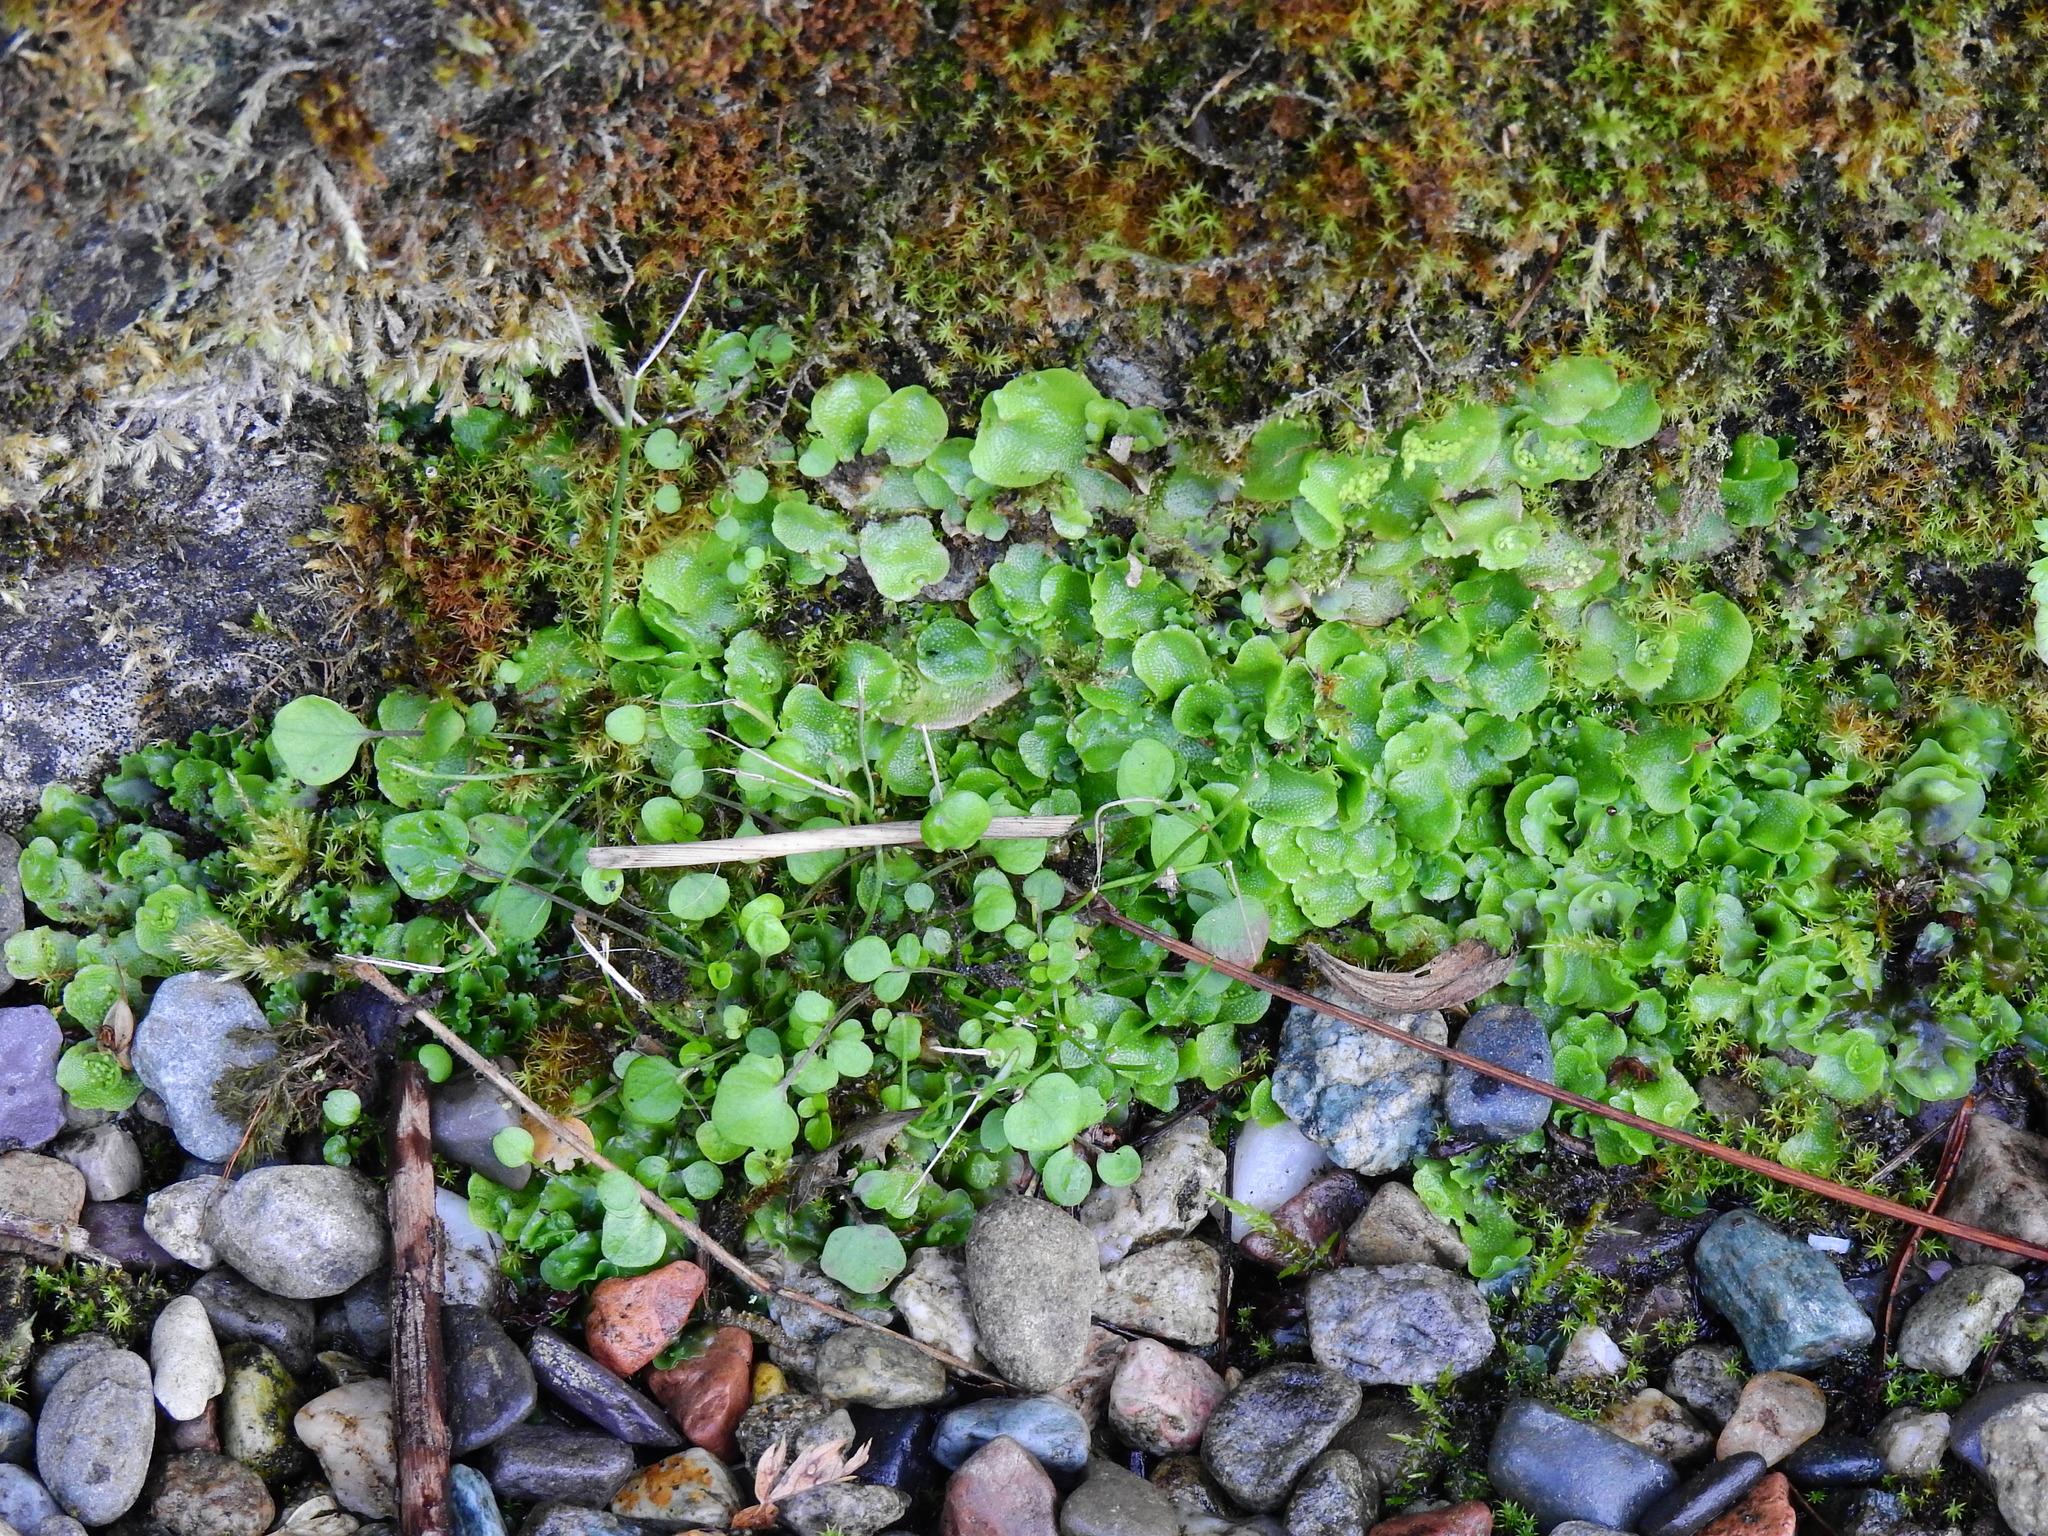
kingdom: Plantae
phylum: Marchantiophyta
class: Marchantiopsida
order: Lunulariales
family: Lunulariaceae
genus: Lunularia
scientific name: Lunularia cruciata
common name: Crescent-cup liverwort
